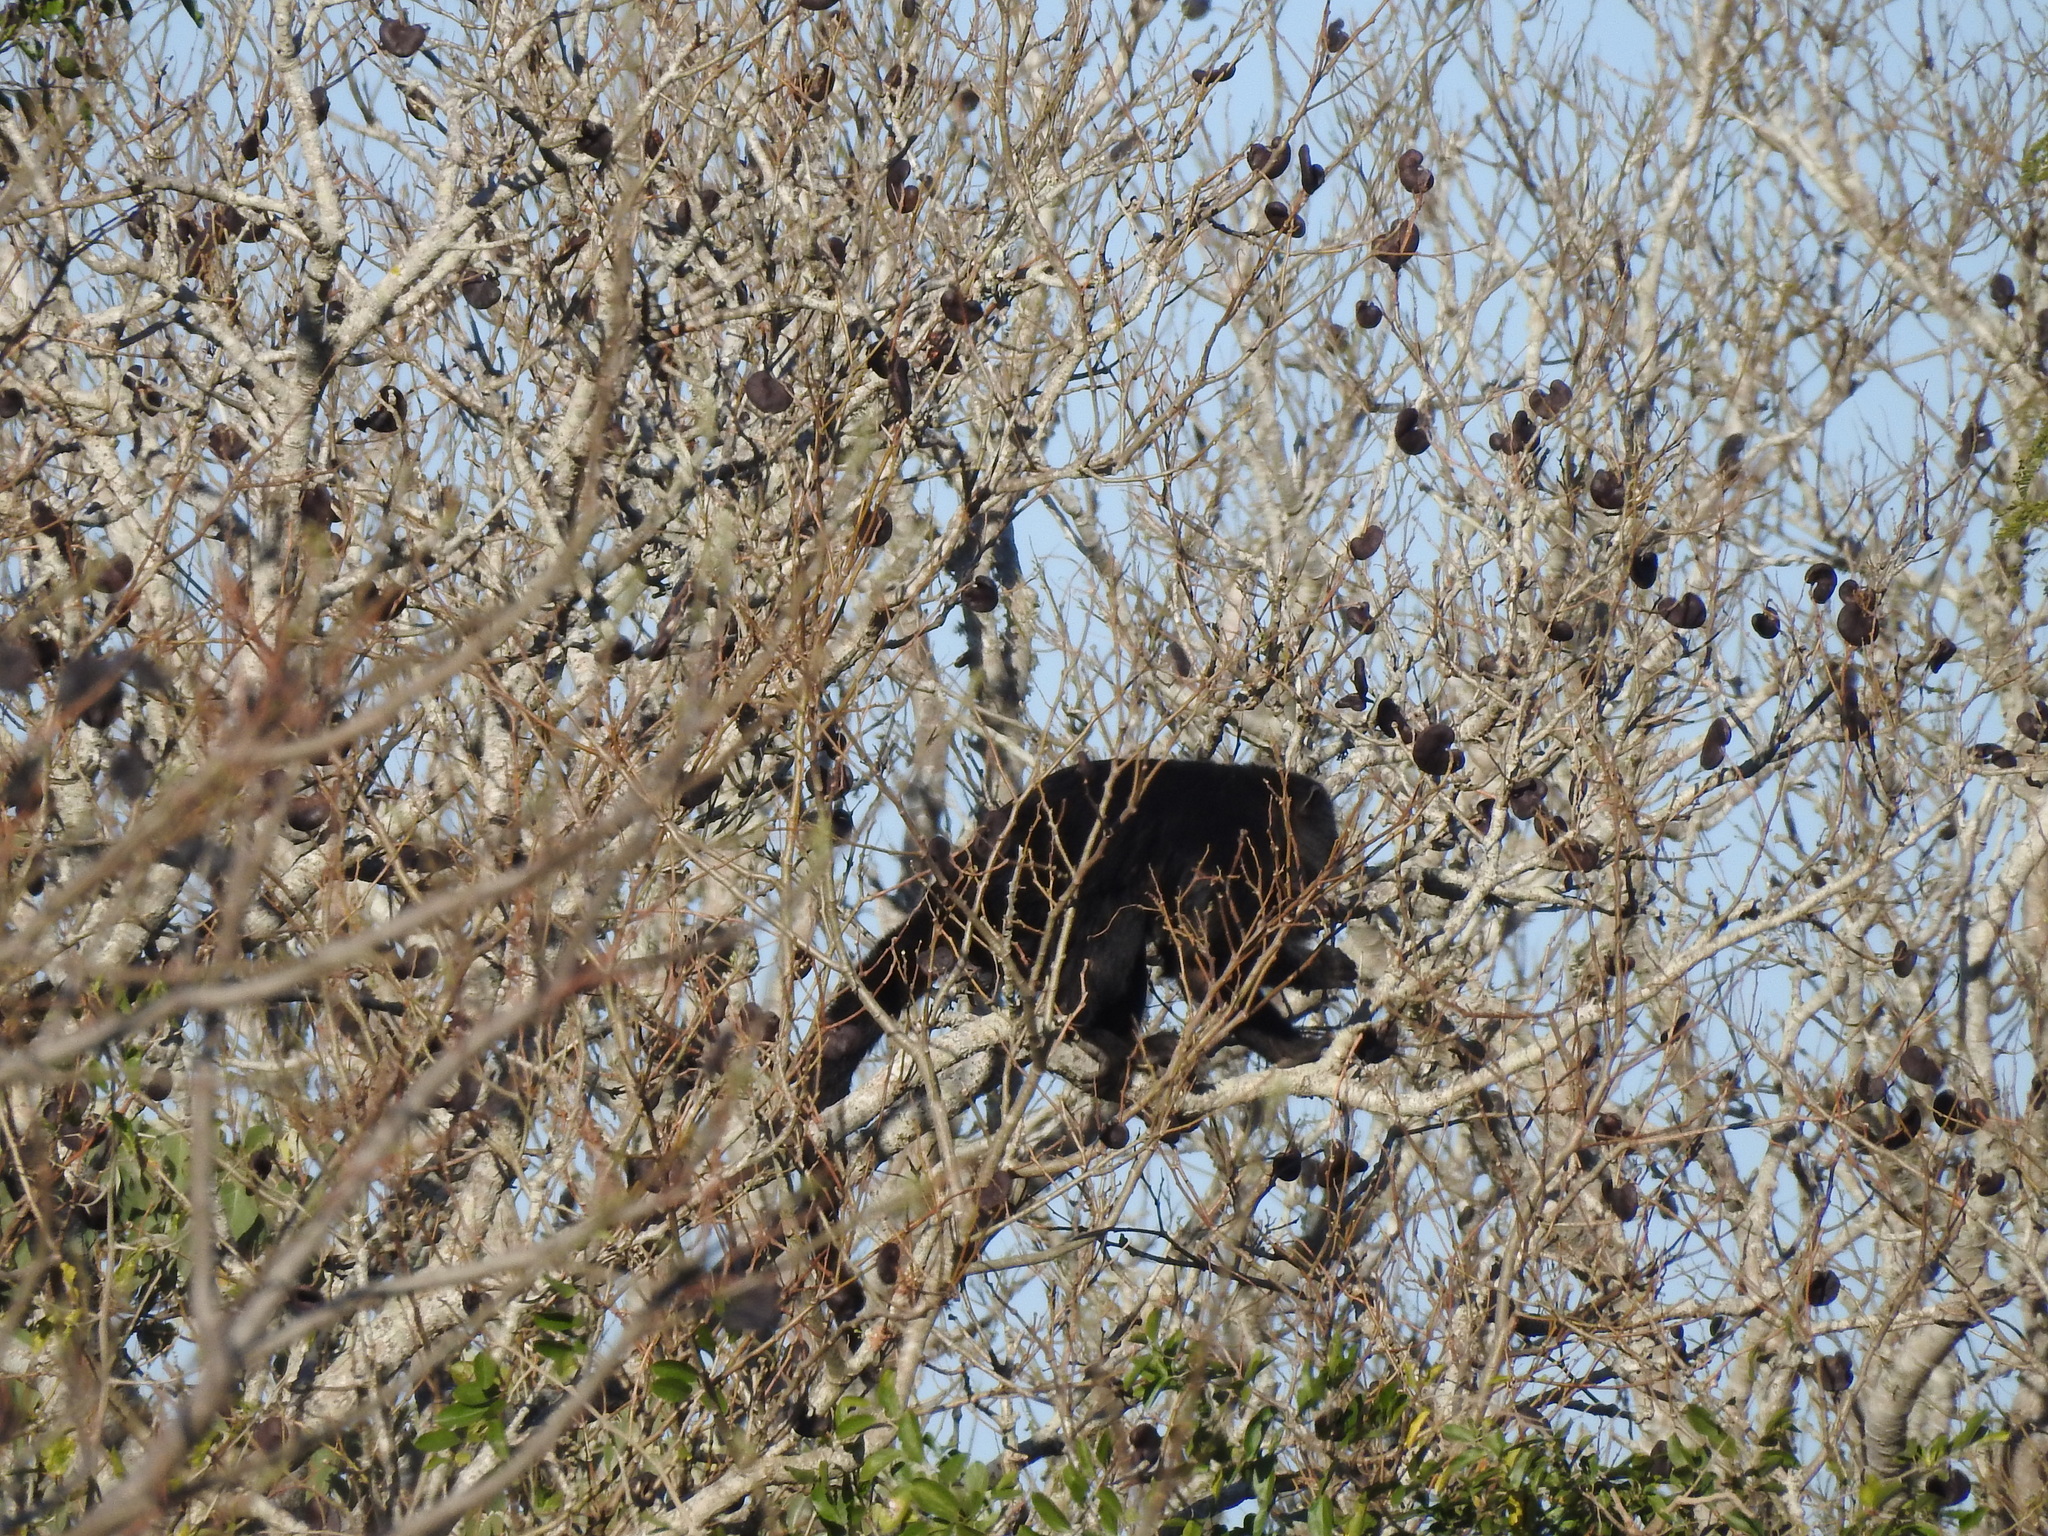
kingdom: Animalia
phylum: Chordata
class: Mammalia
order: Primates
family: Atelidae
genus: Alouatta
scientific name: Alouatta caraya
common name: Black howler
